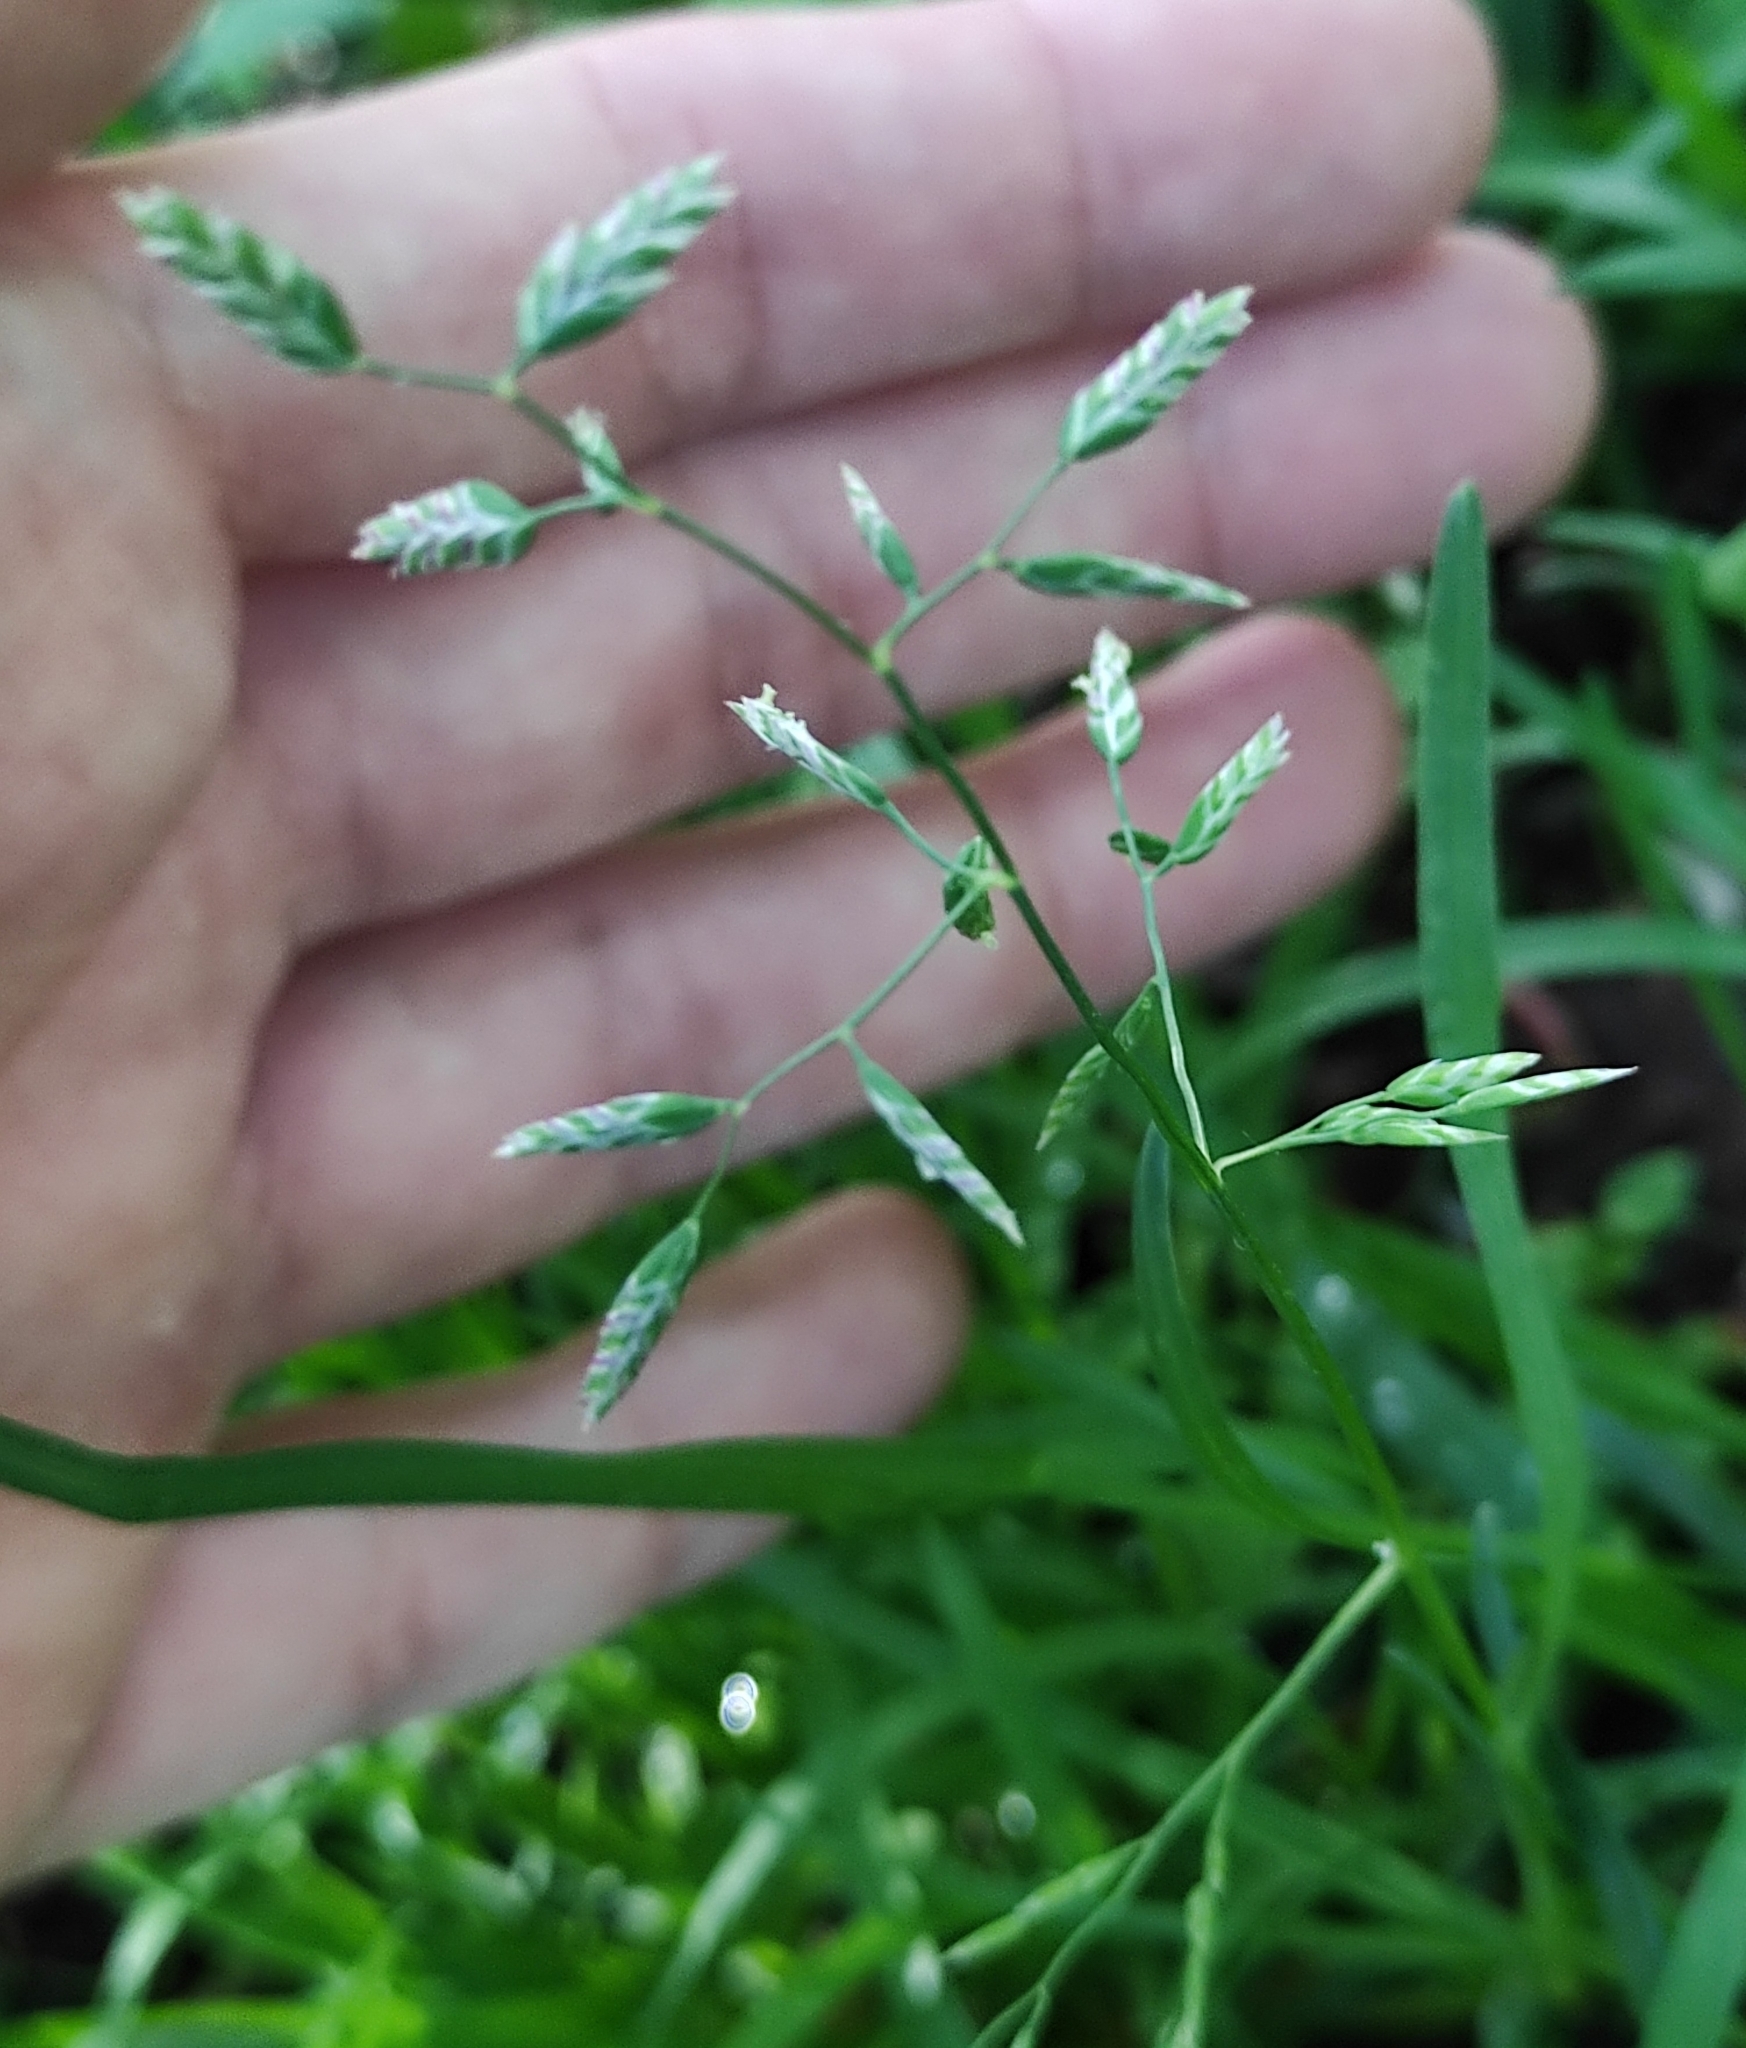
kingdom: Plantae
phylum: Tracheophyta
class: Liliopsida
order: Poales
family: Poaceae
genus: Poa
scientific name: Poa annua
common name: Annual bluegrass
